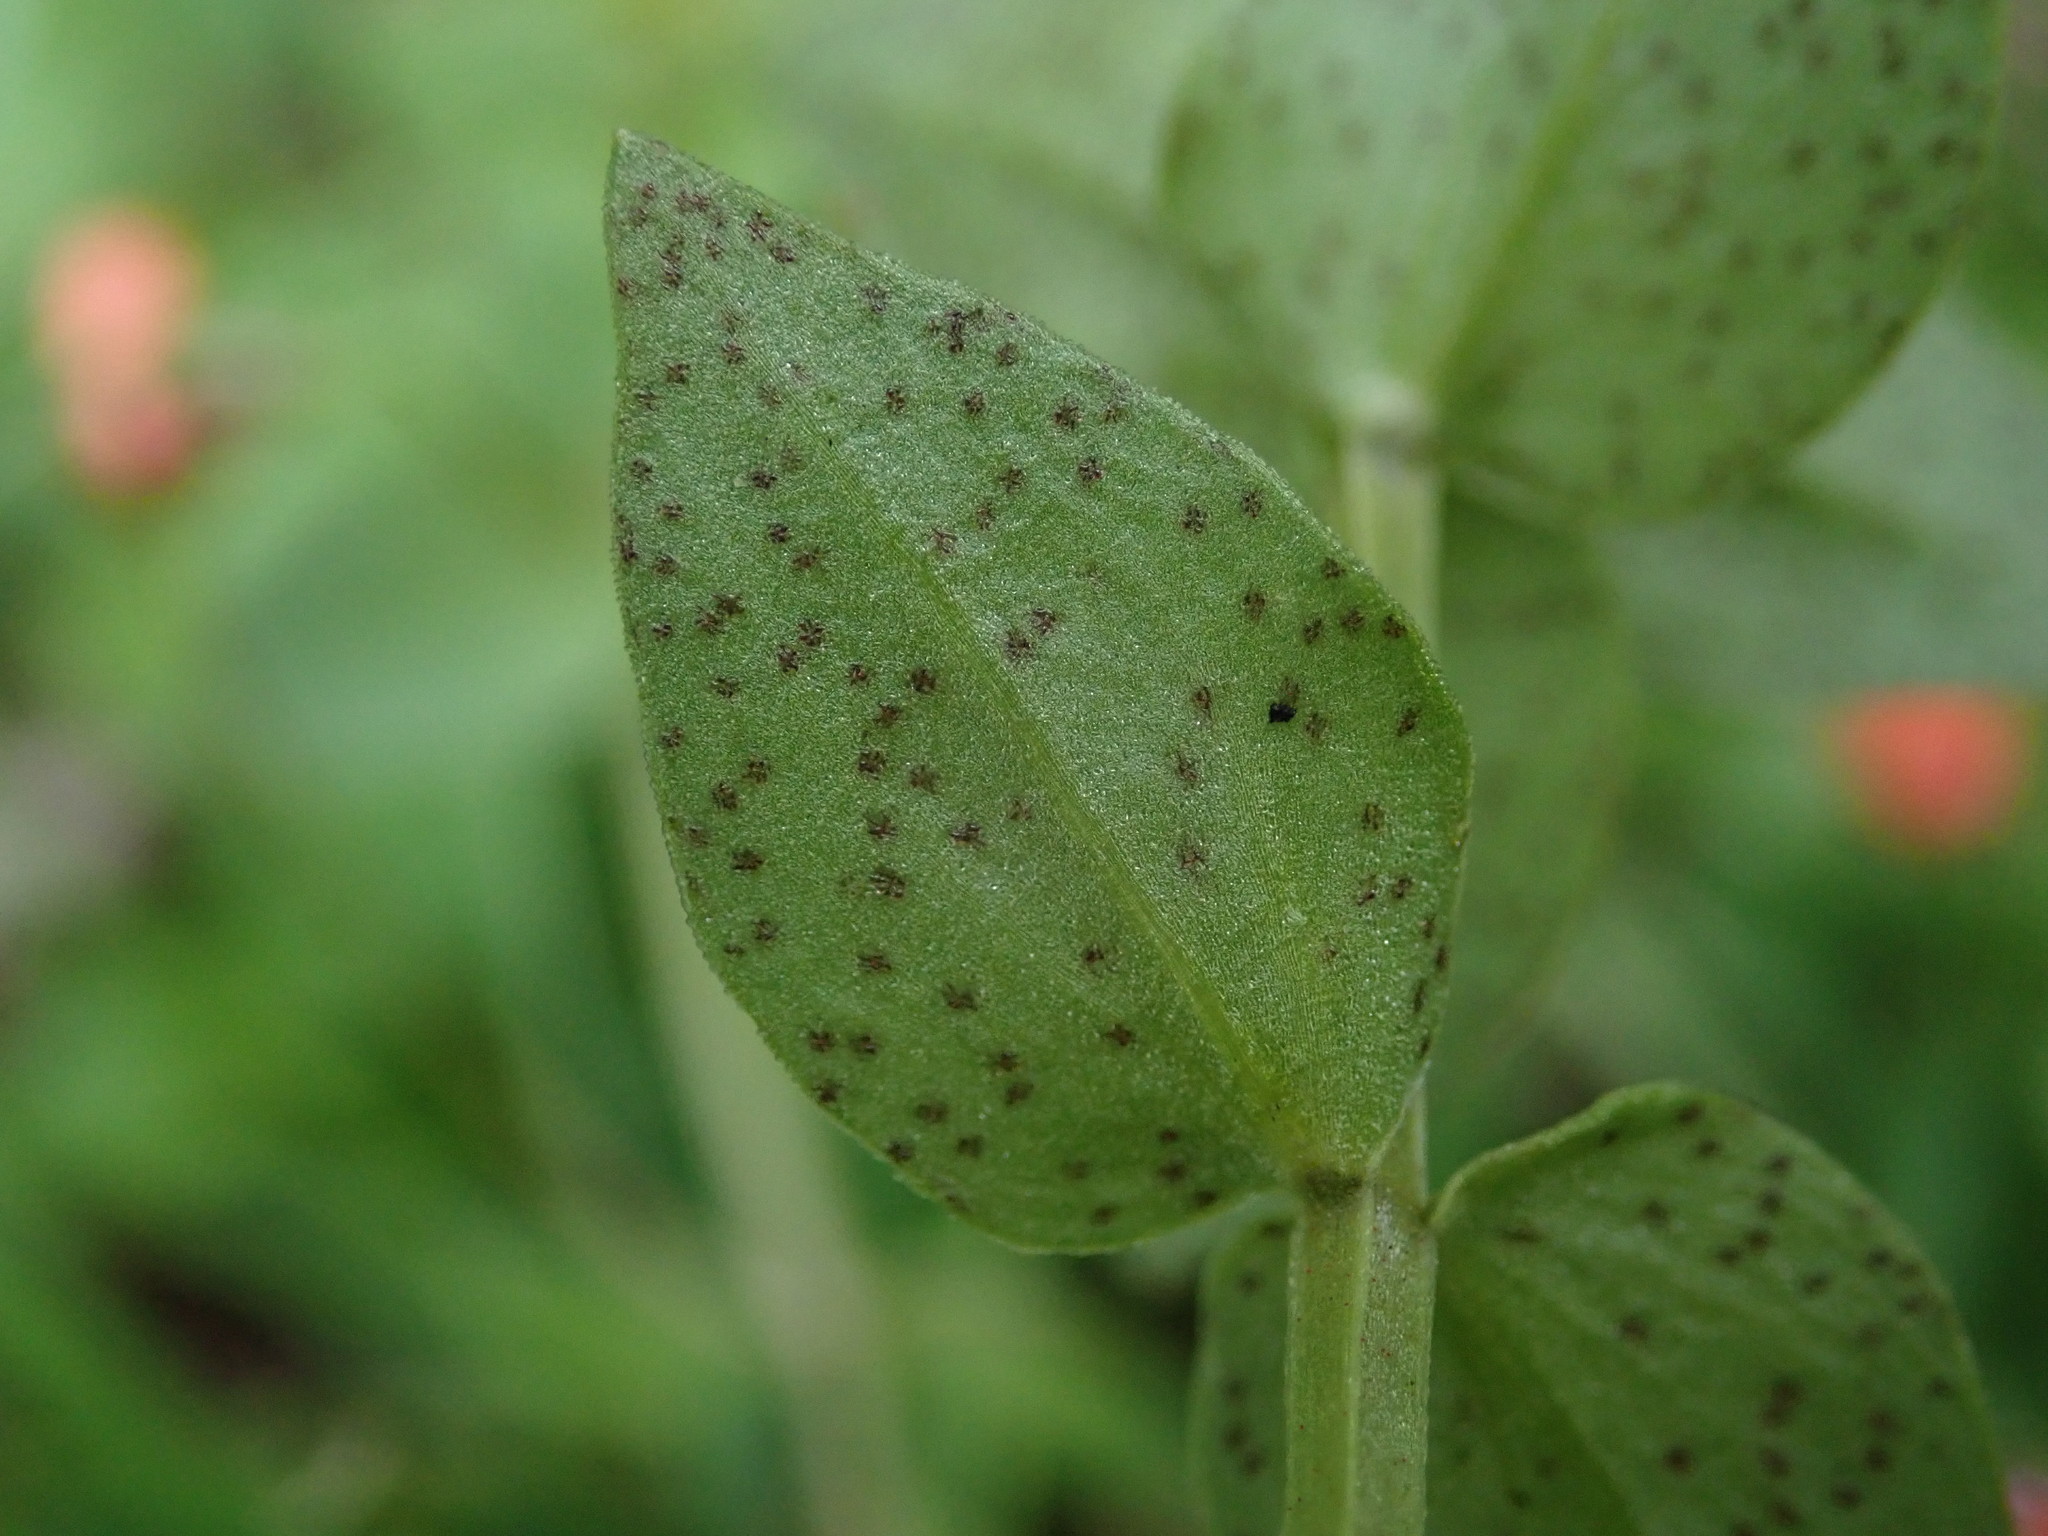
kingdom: Plantae
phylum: Tracheophyta
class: Magnoliopsida
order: Ericales
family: Primulaceae
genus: Lysimachia
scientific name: Lysimachia arvensis
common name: Scarlet pimpernel
